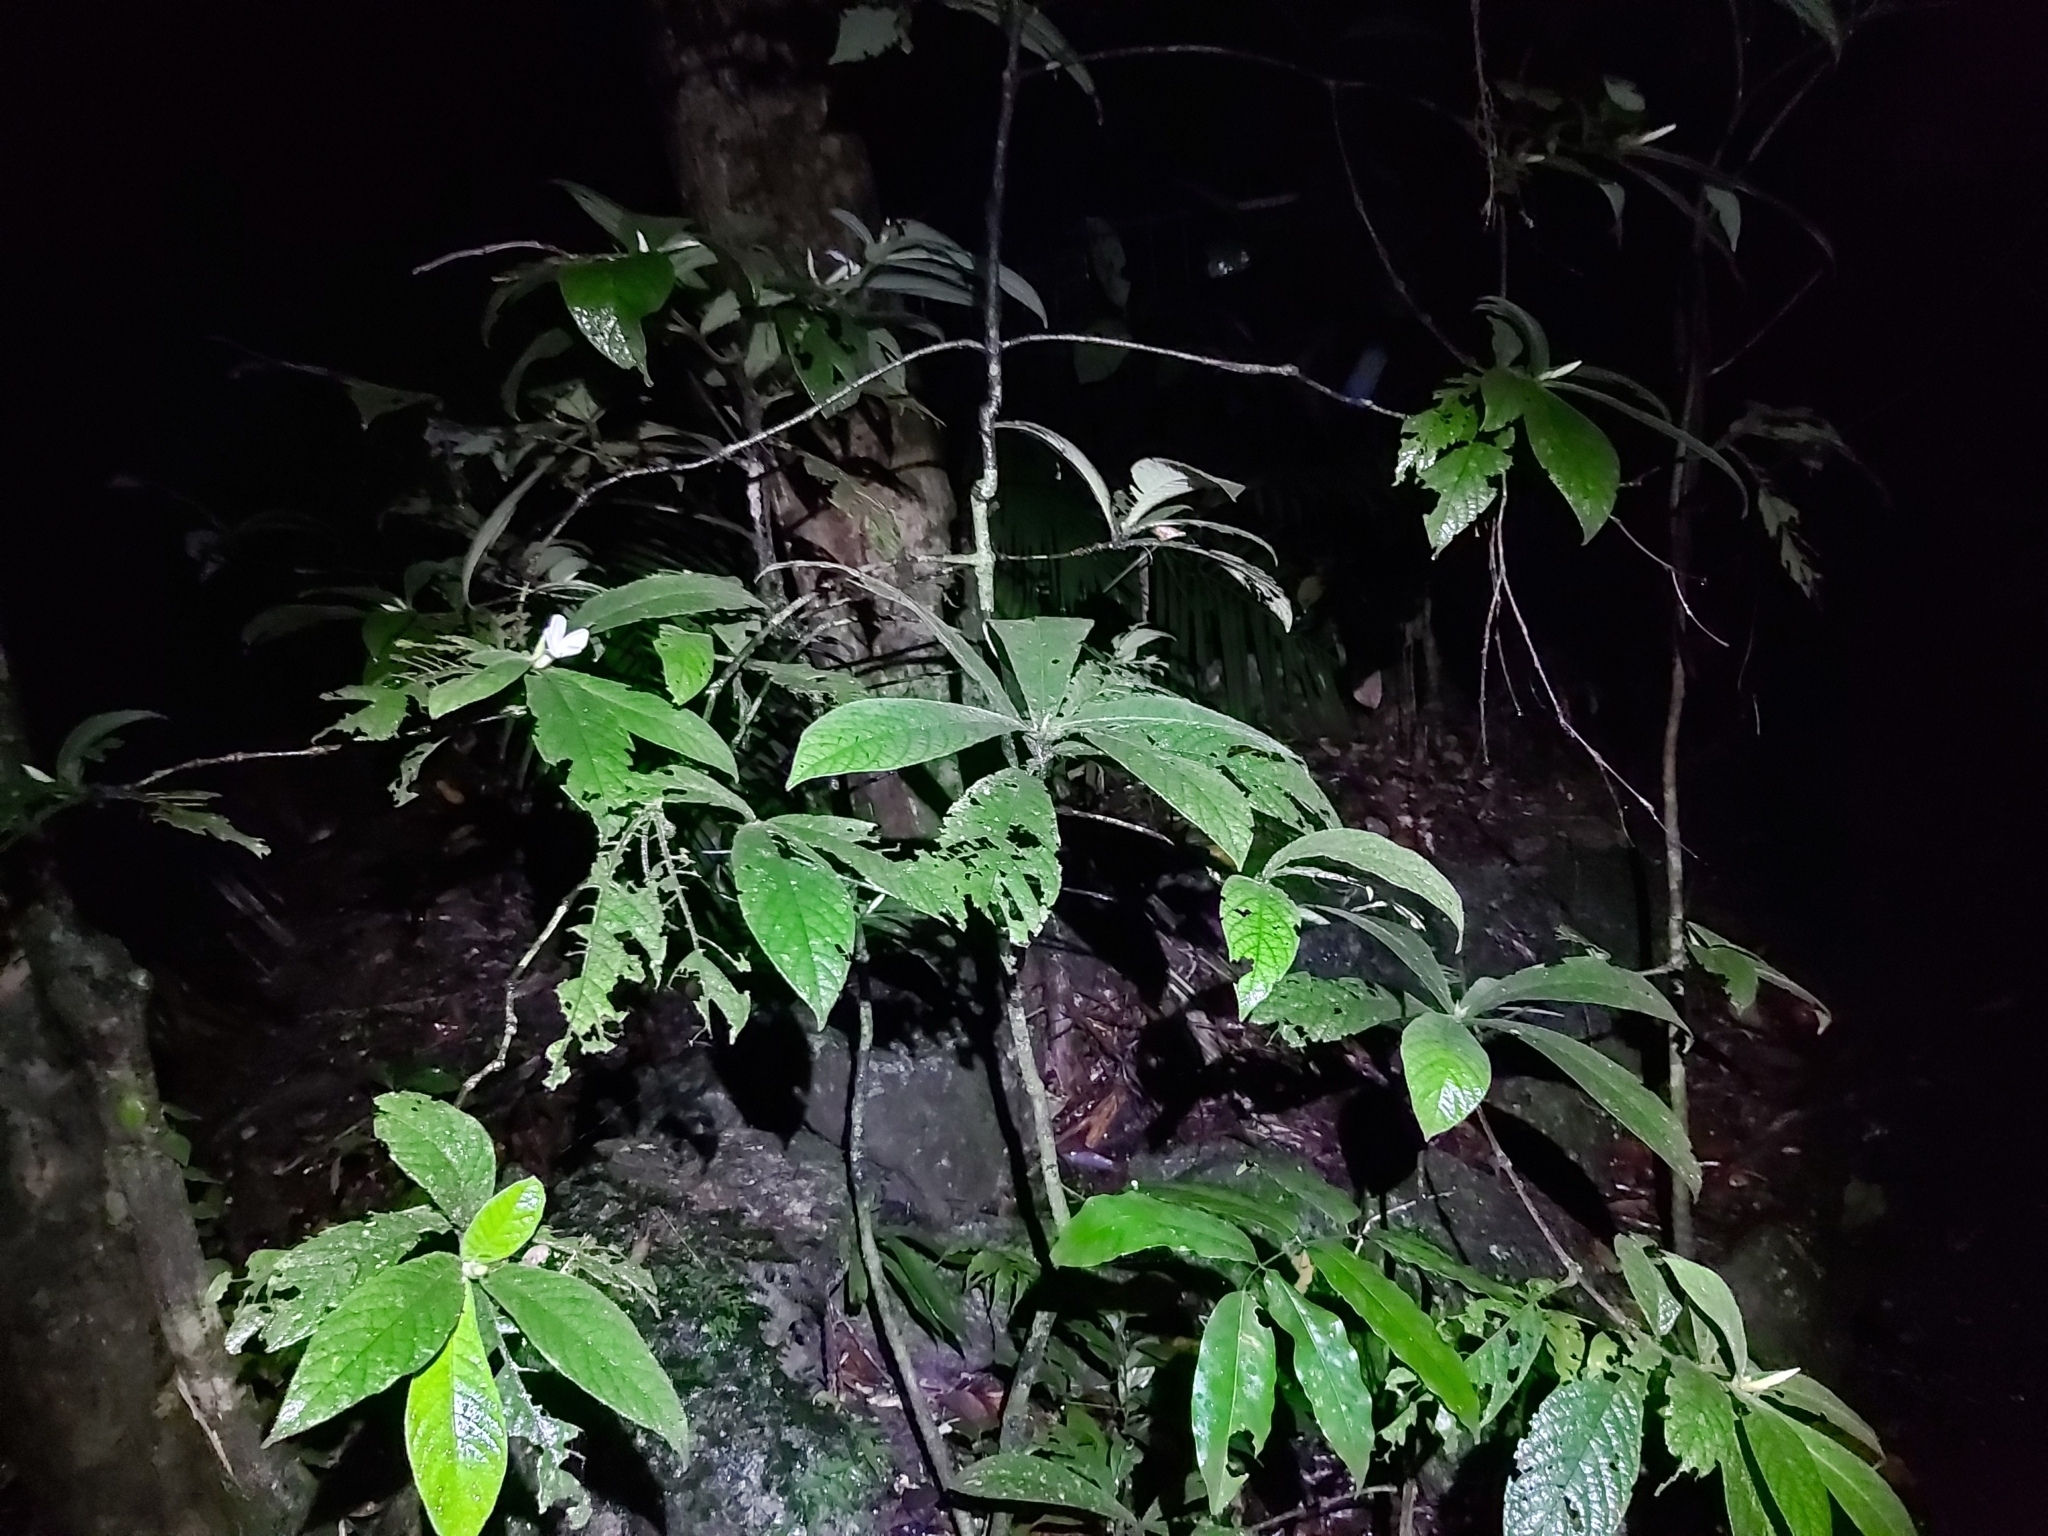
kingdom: Plantae
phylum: Tracheophyta
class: Magnoliopsida
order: Gentianales
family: Rubiaceae
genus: Atractocarpus
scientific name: Atractocarpus hirtus
